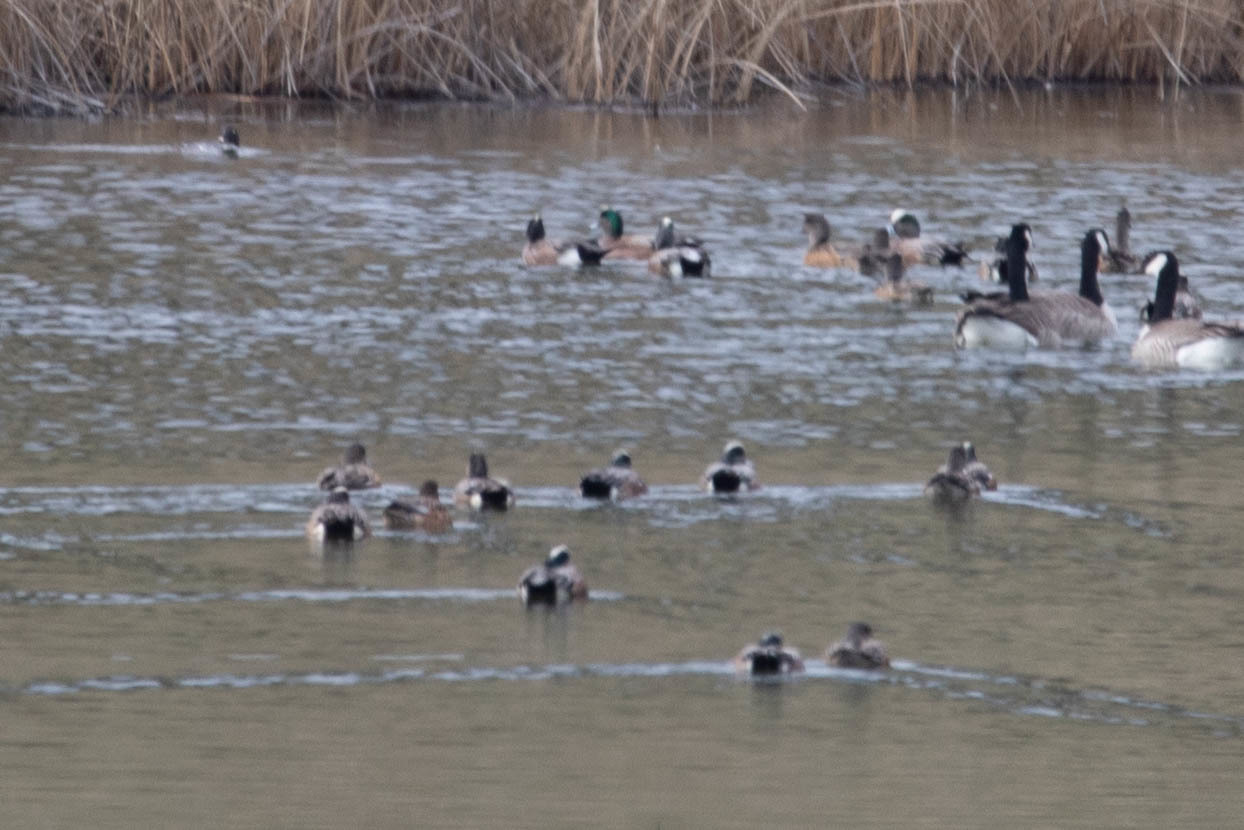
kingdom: Animalia
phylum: Chordata
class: Aves
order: Anseriformes
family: Anatidae
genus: Mareca
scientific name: Mareca americana
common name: American wigeon
